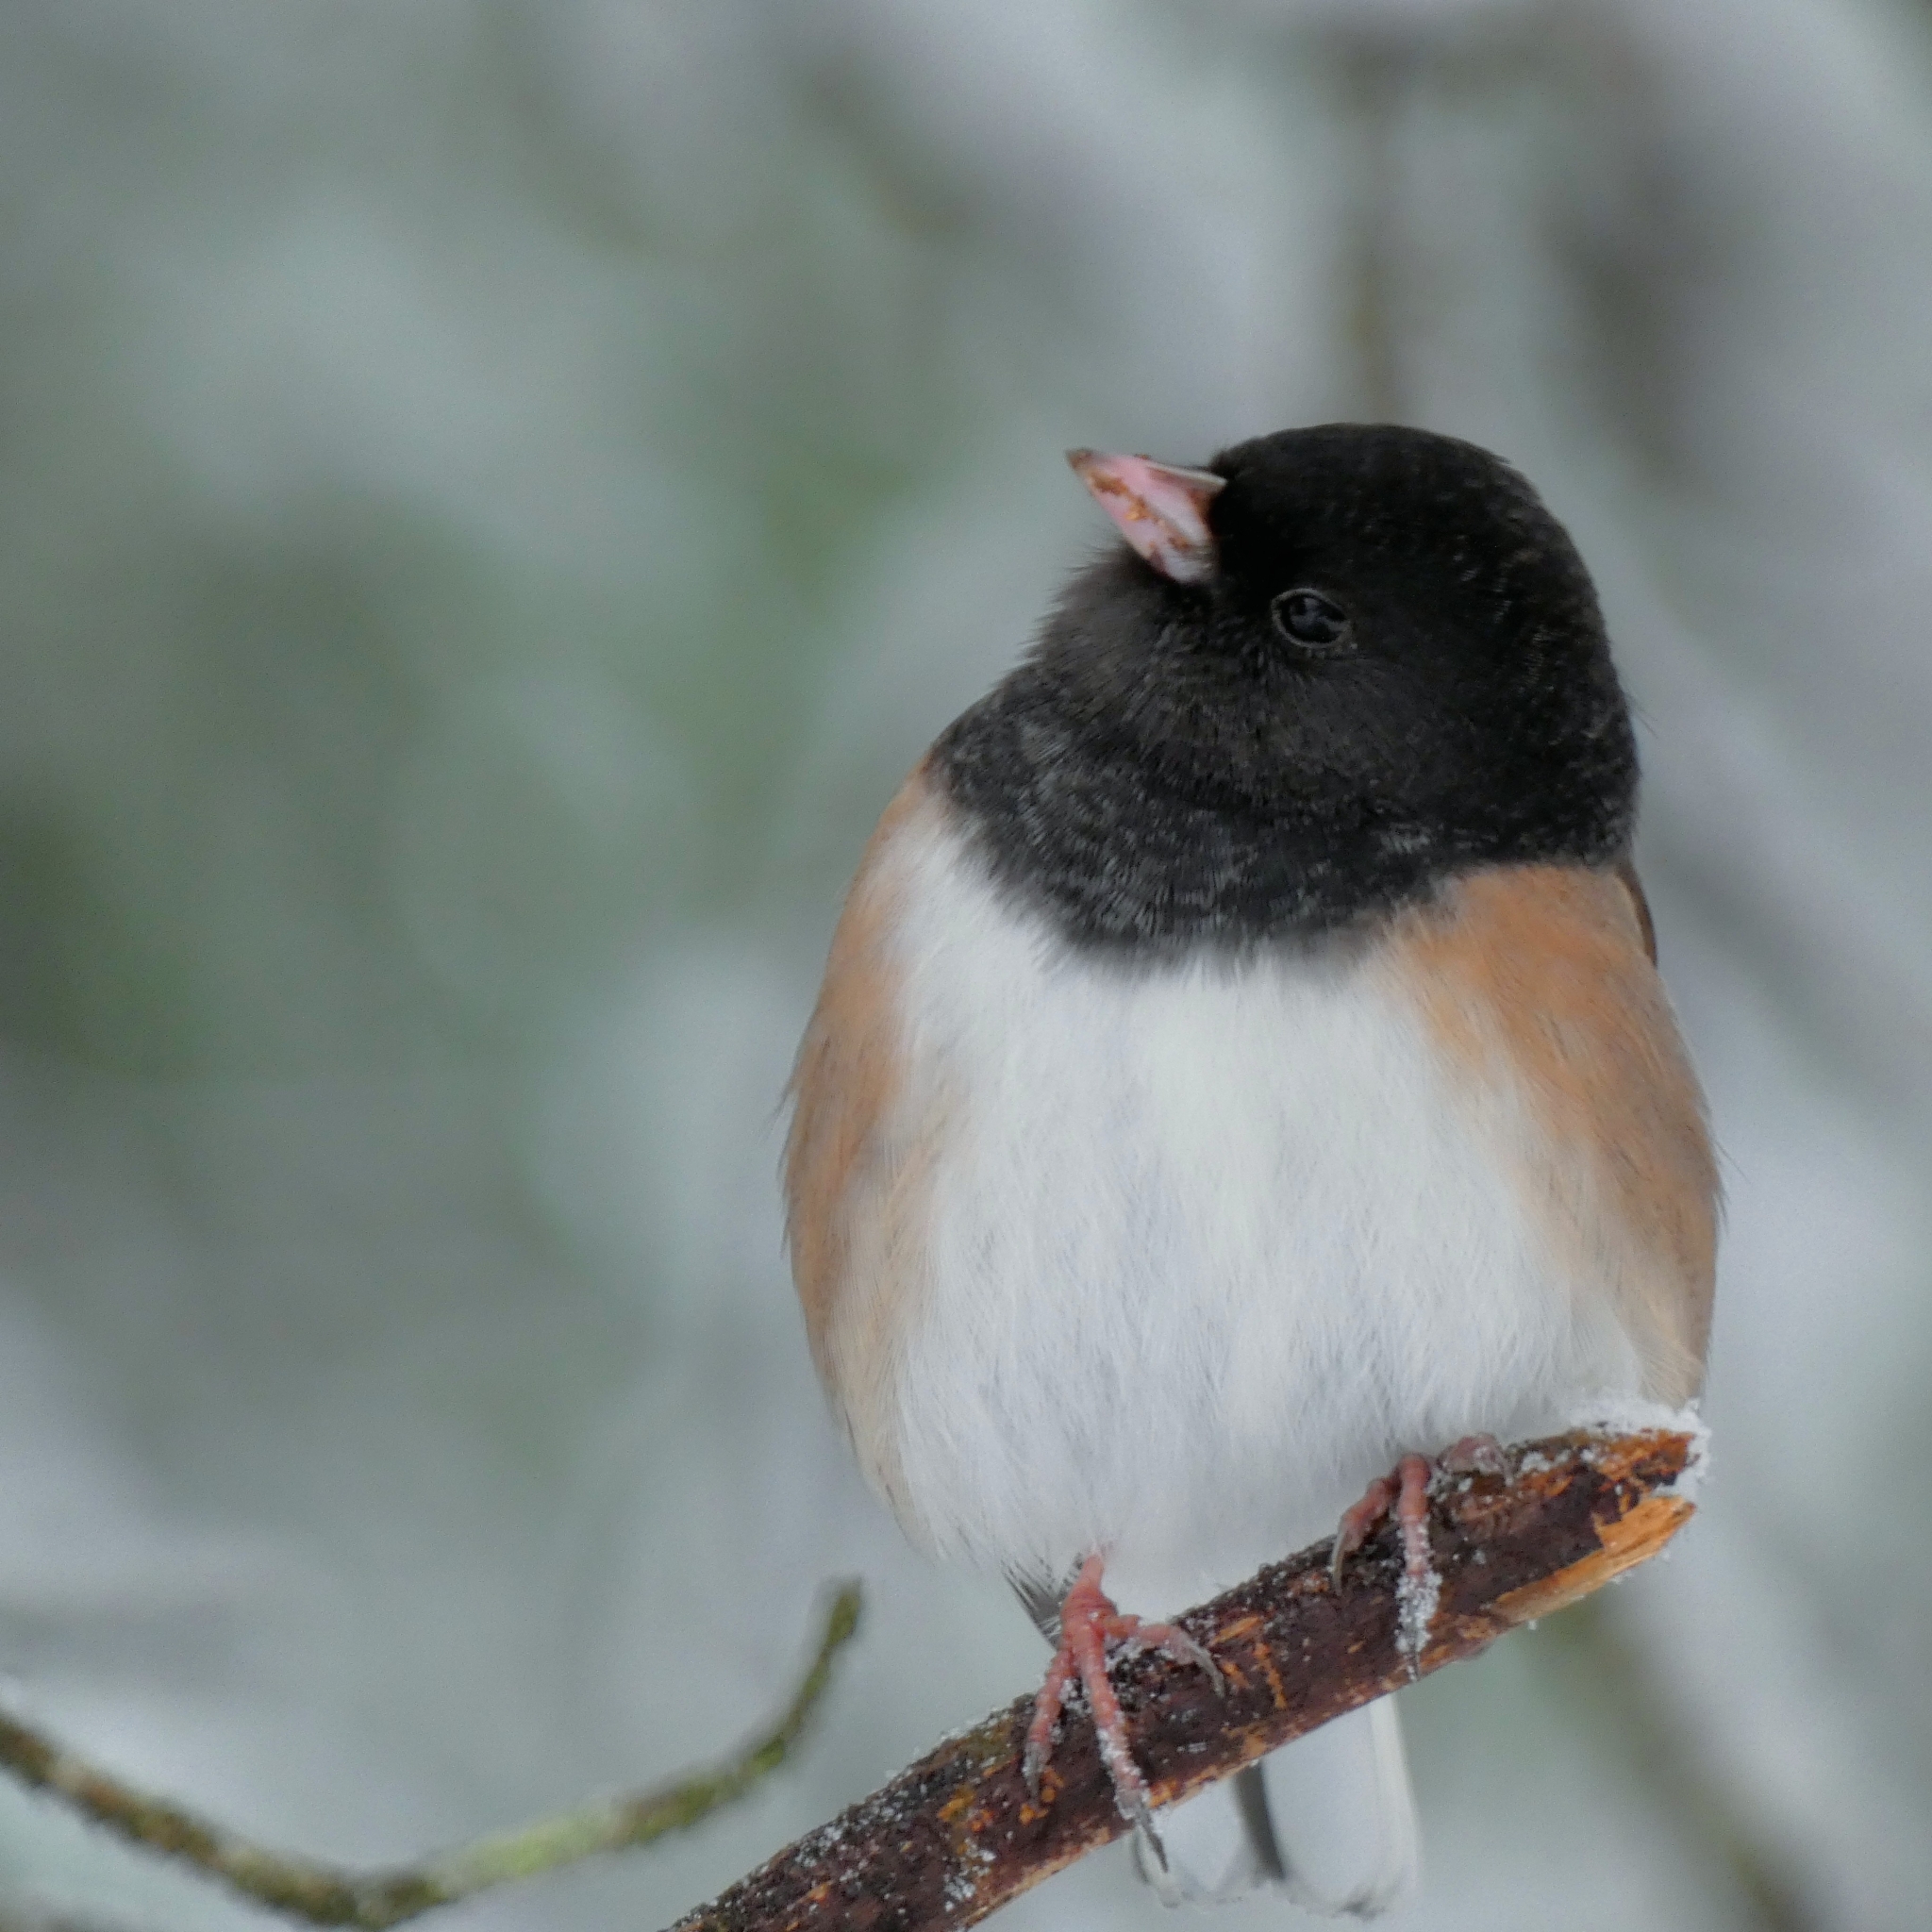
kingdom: Animalia
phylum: Chordata
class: Aves
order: Passeriformes
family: Passerellidae
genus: Junco
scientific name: Junco hyemalis
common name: Dark-eyed junco
